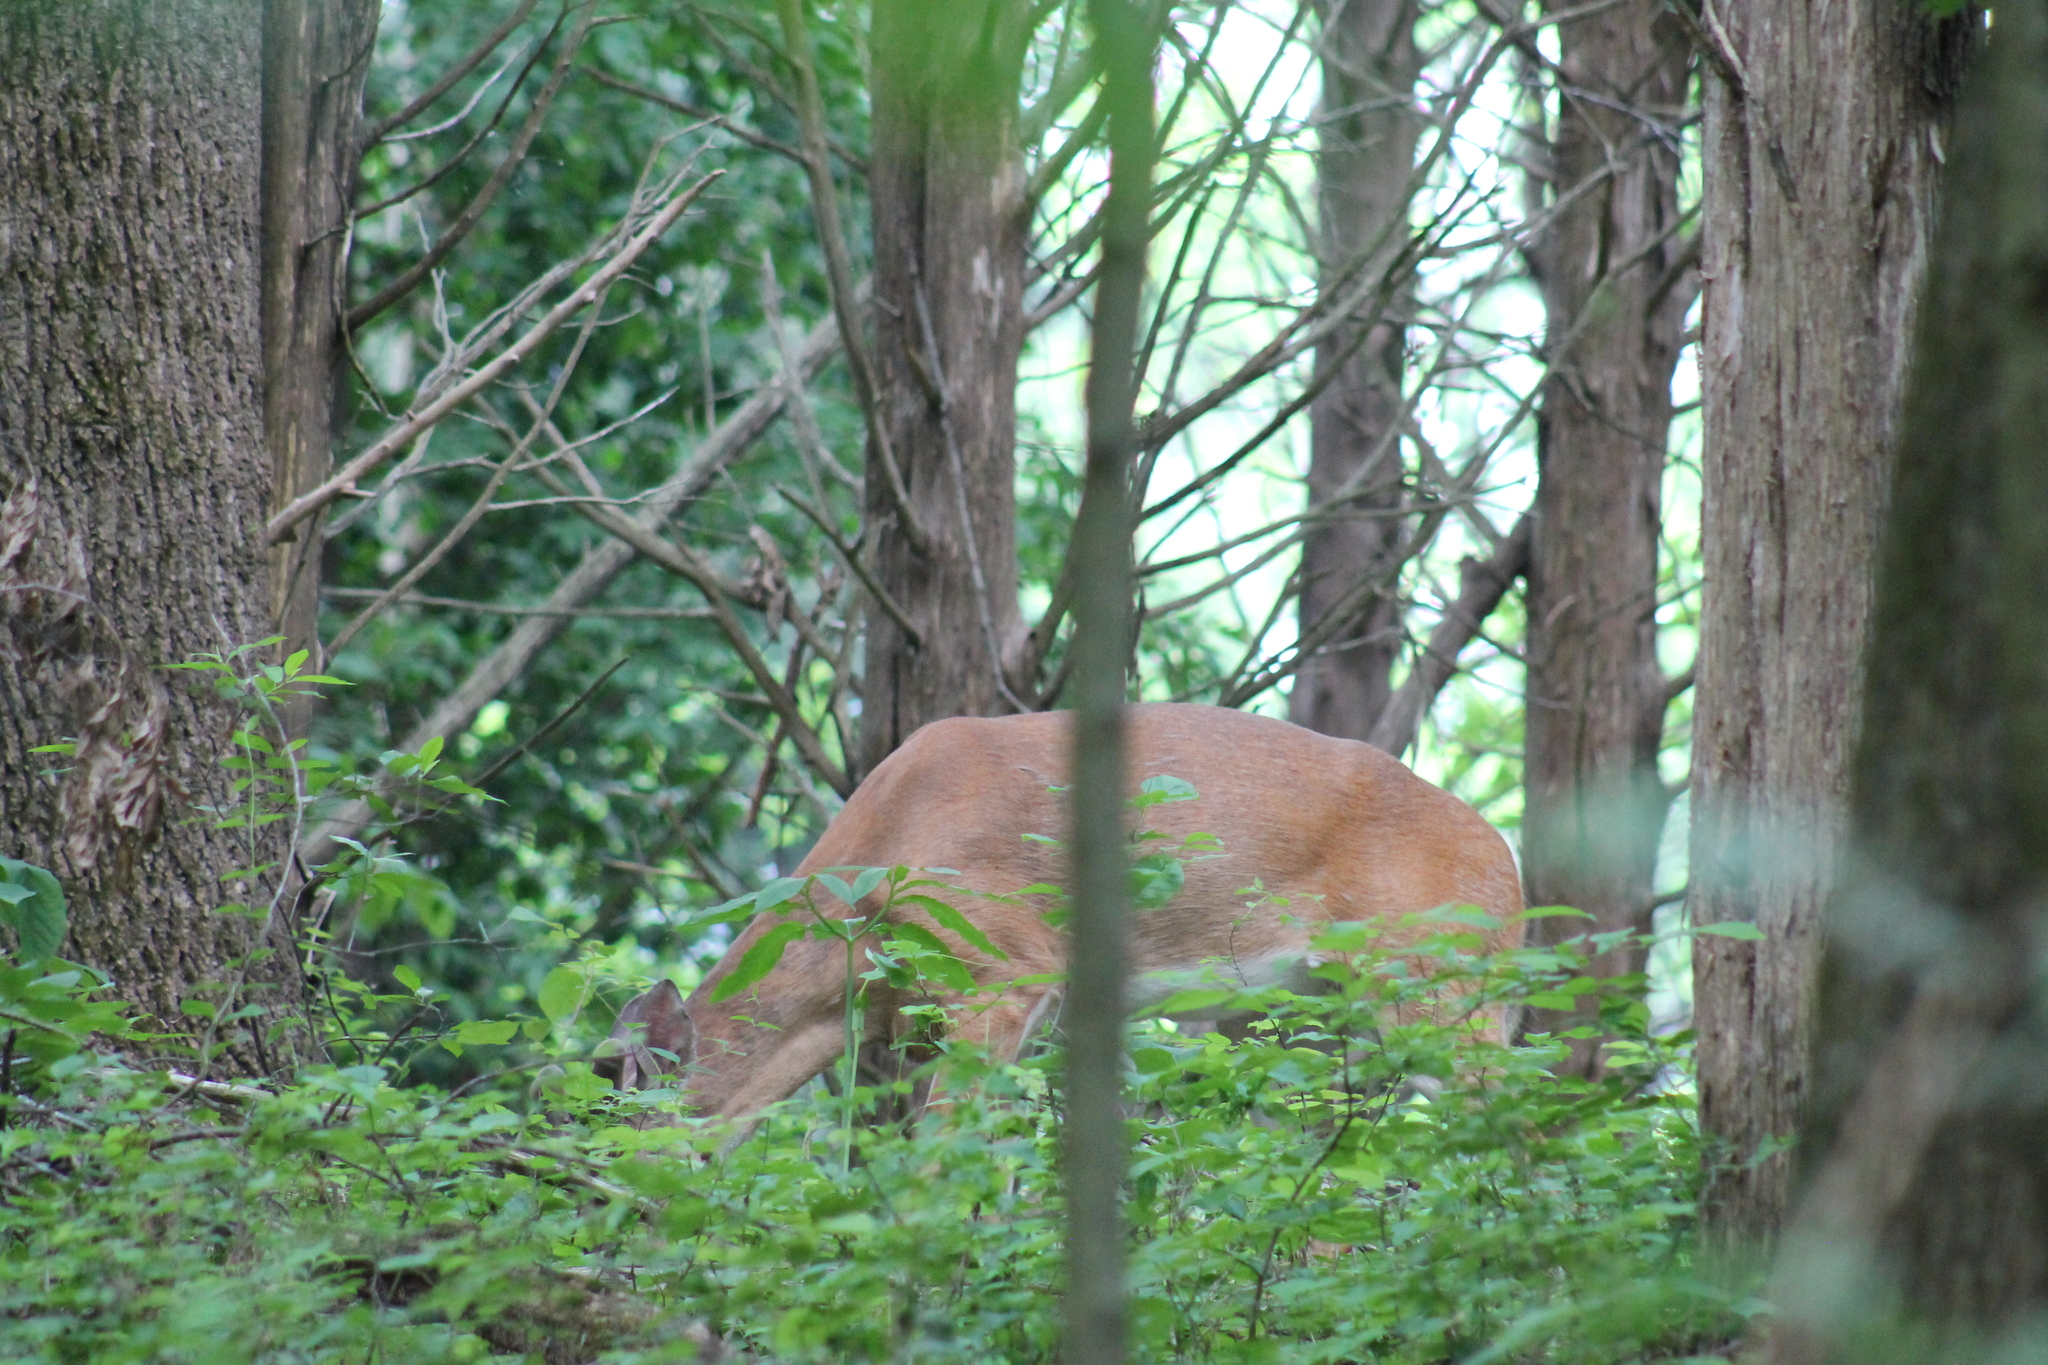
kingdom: Animalia
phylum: Chordata
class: Mammalia
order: Artiodactyla
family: Cervidae
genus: Odocoileus
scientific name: Odocoileus virginianus
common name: White-tailed deer
